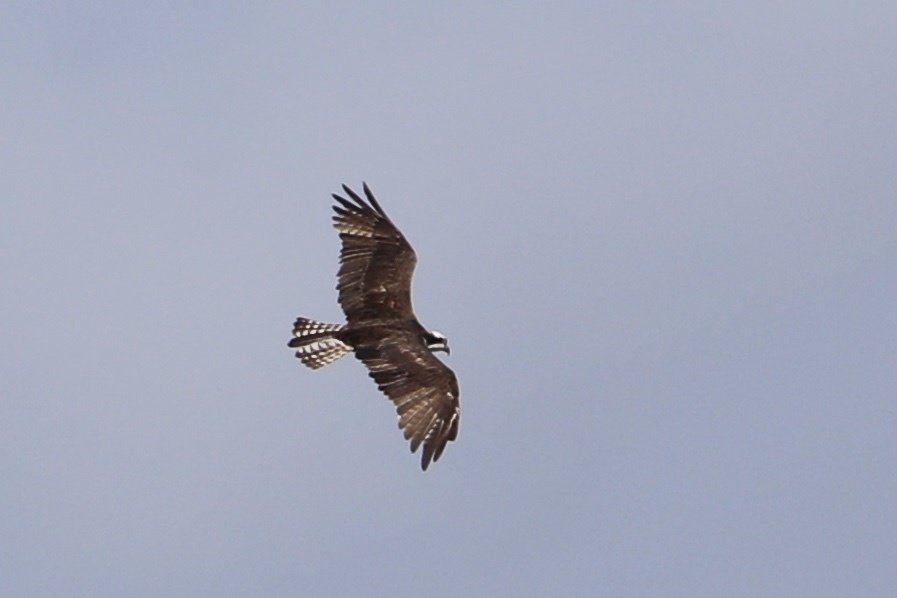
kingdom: Animalia
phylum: Chordata
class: Aves
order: Accipitriformes
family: Pandionidae
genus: Pandion
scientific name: Pandion haliaetus
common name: Osprey
